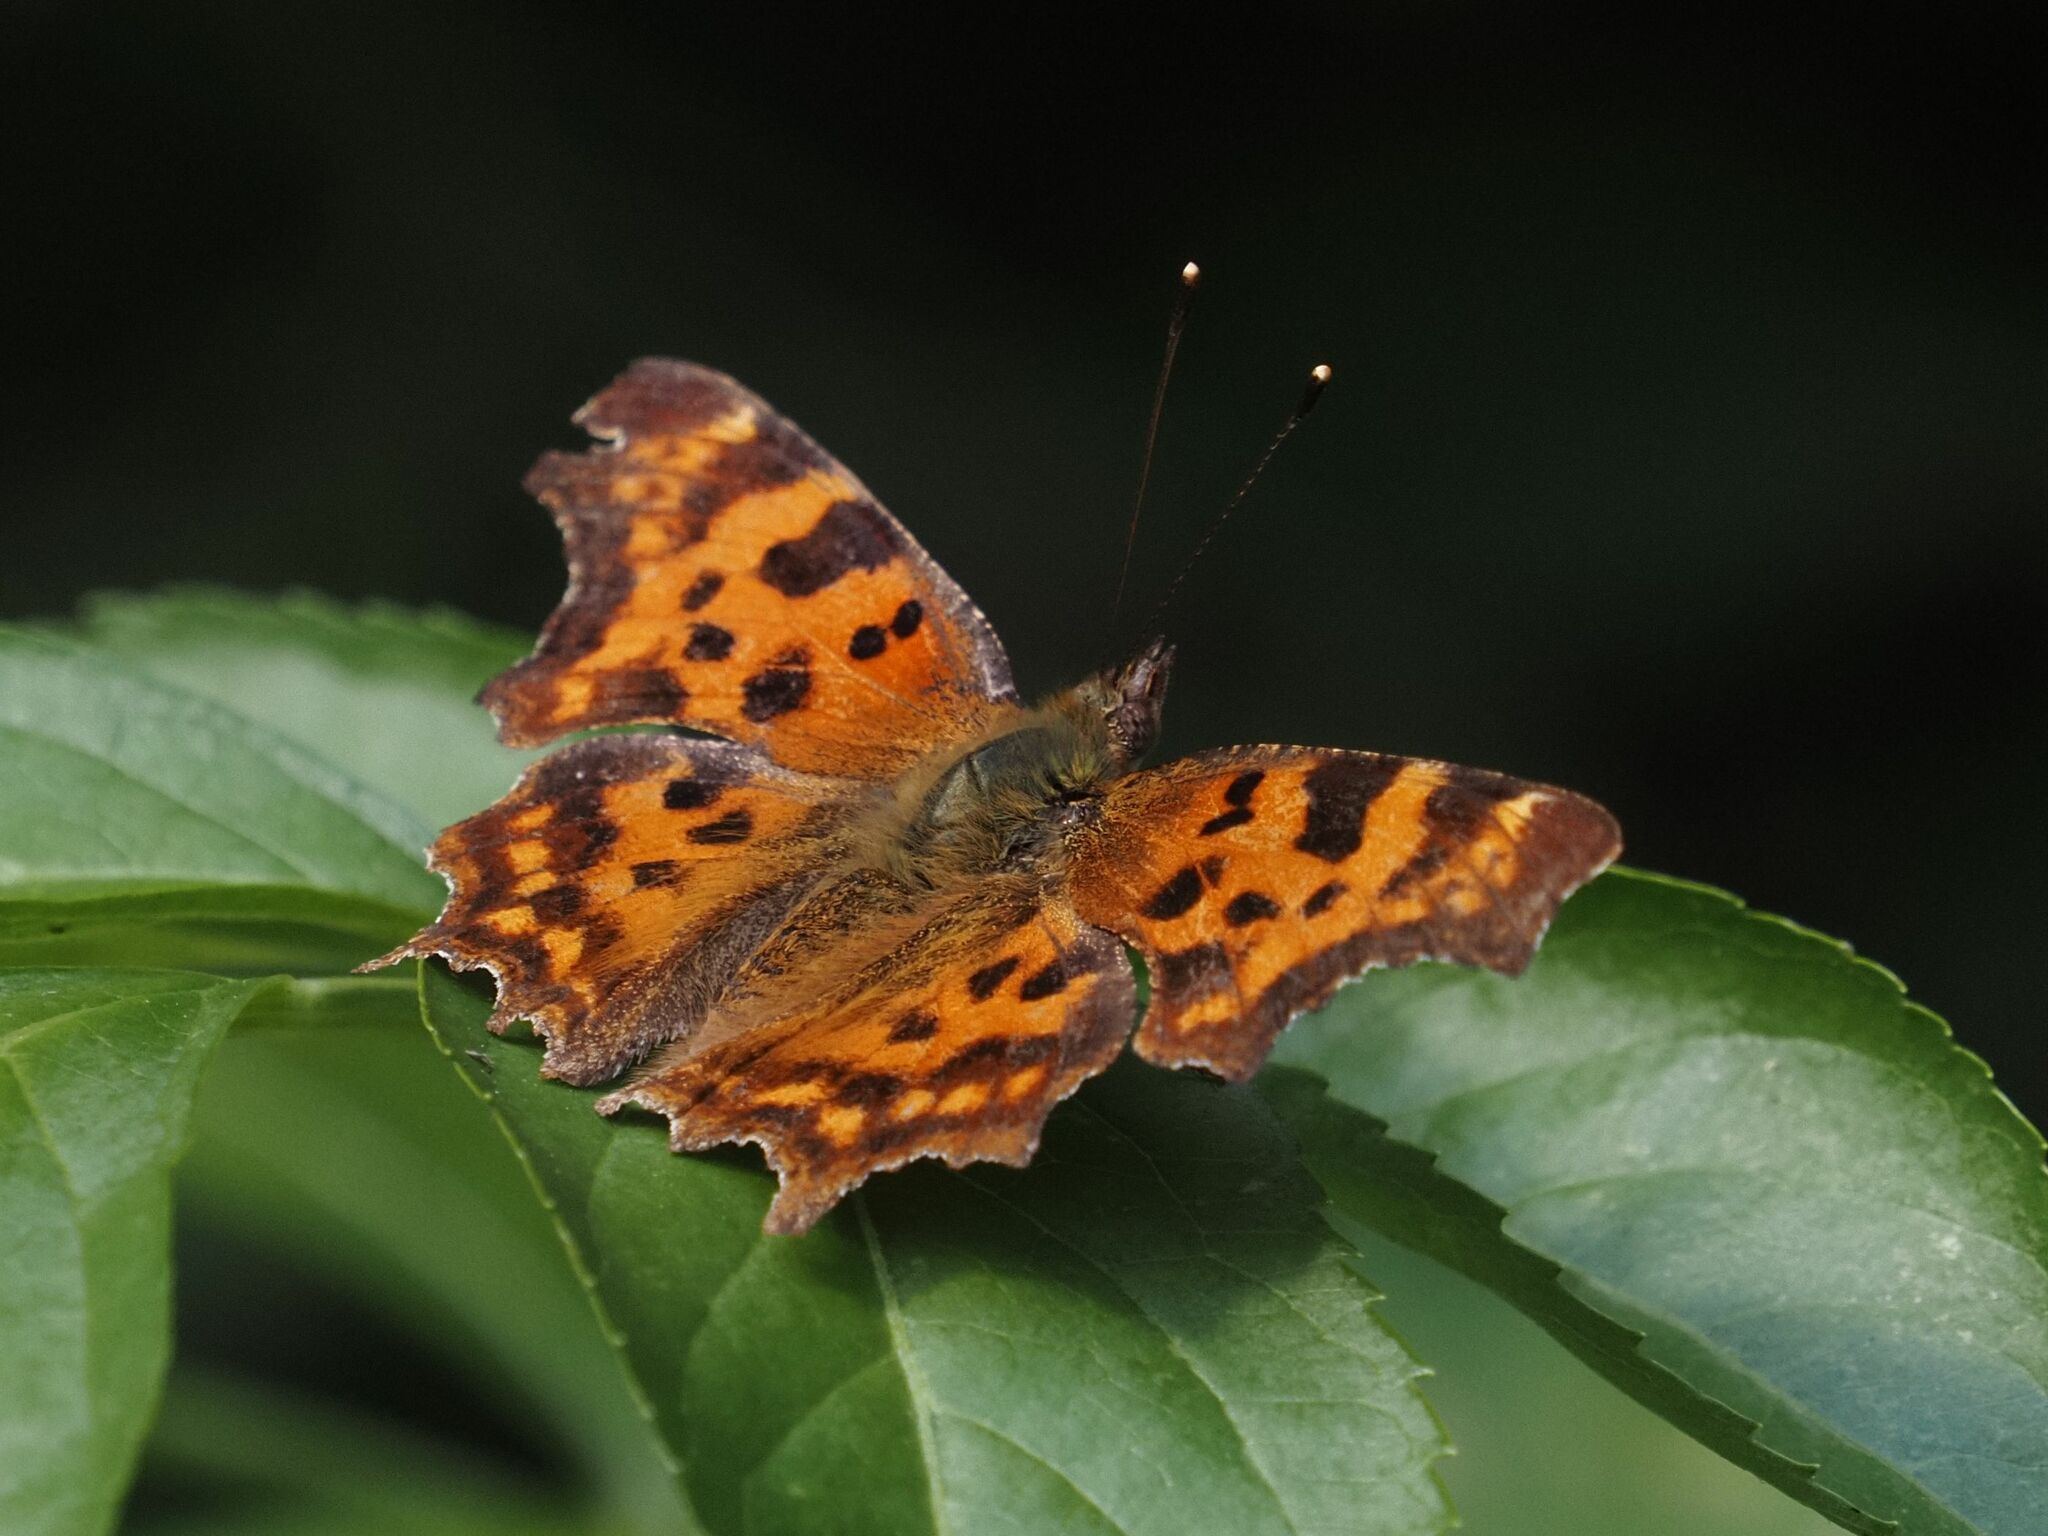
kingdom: Animalia
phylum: Arthropoda
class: Insecta
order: Lepidoptera
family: Nymphalidae
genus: Polygonia
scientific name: Polygonia c-album
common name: Comma
